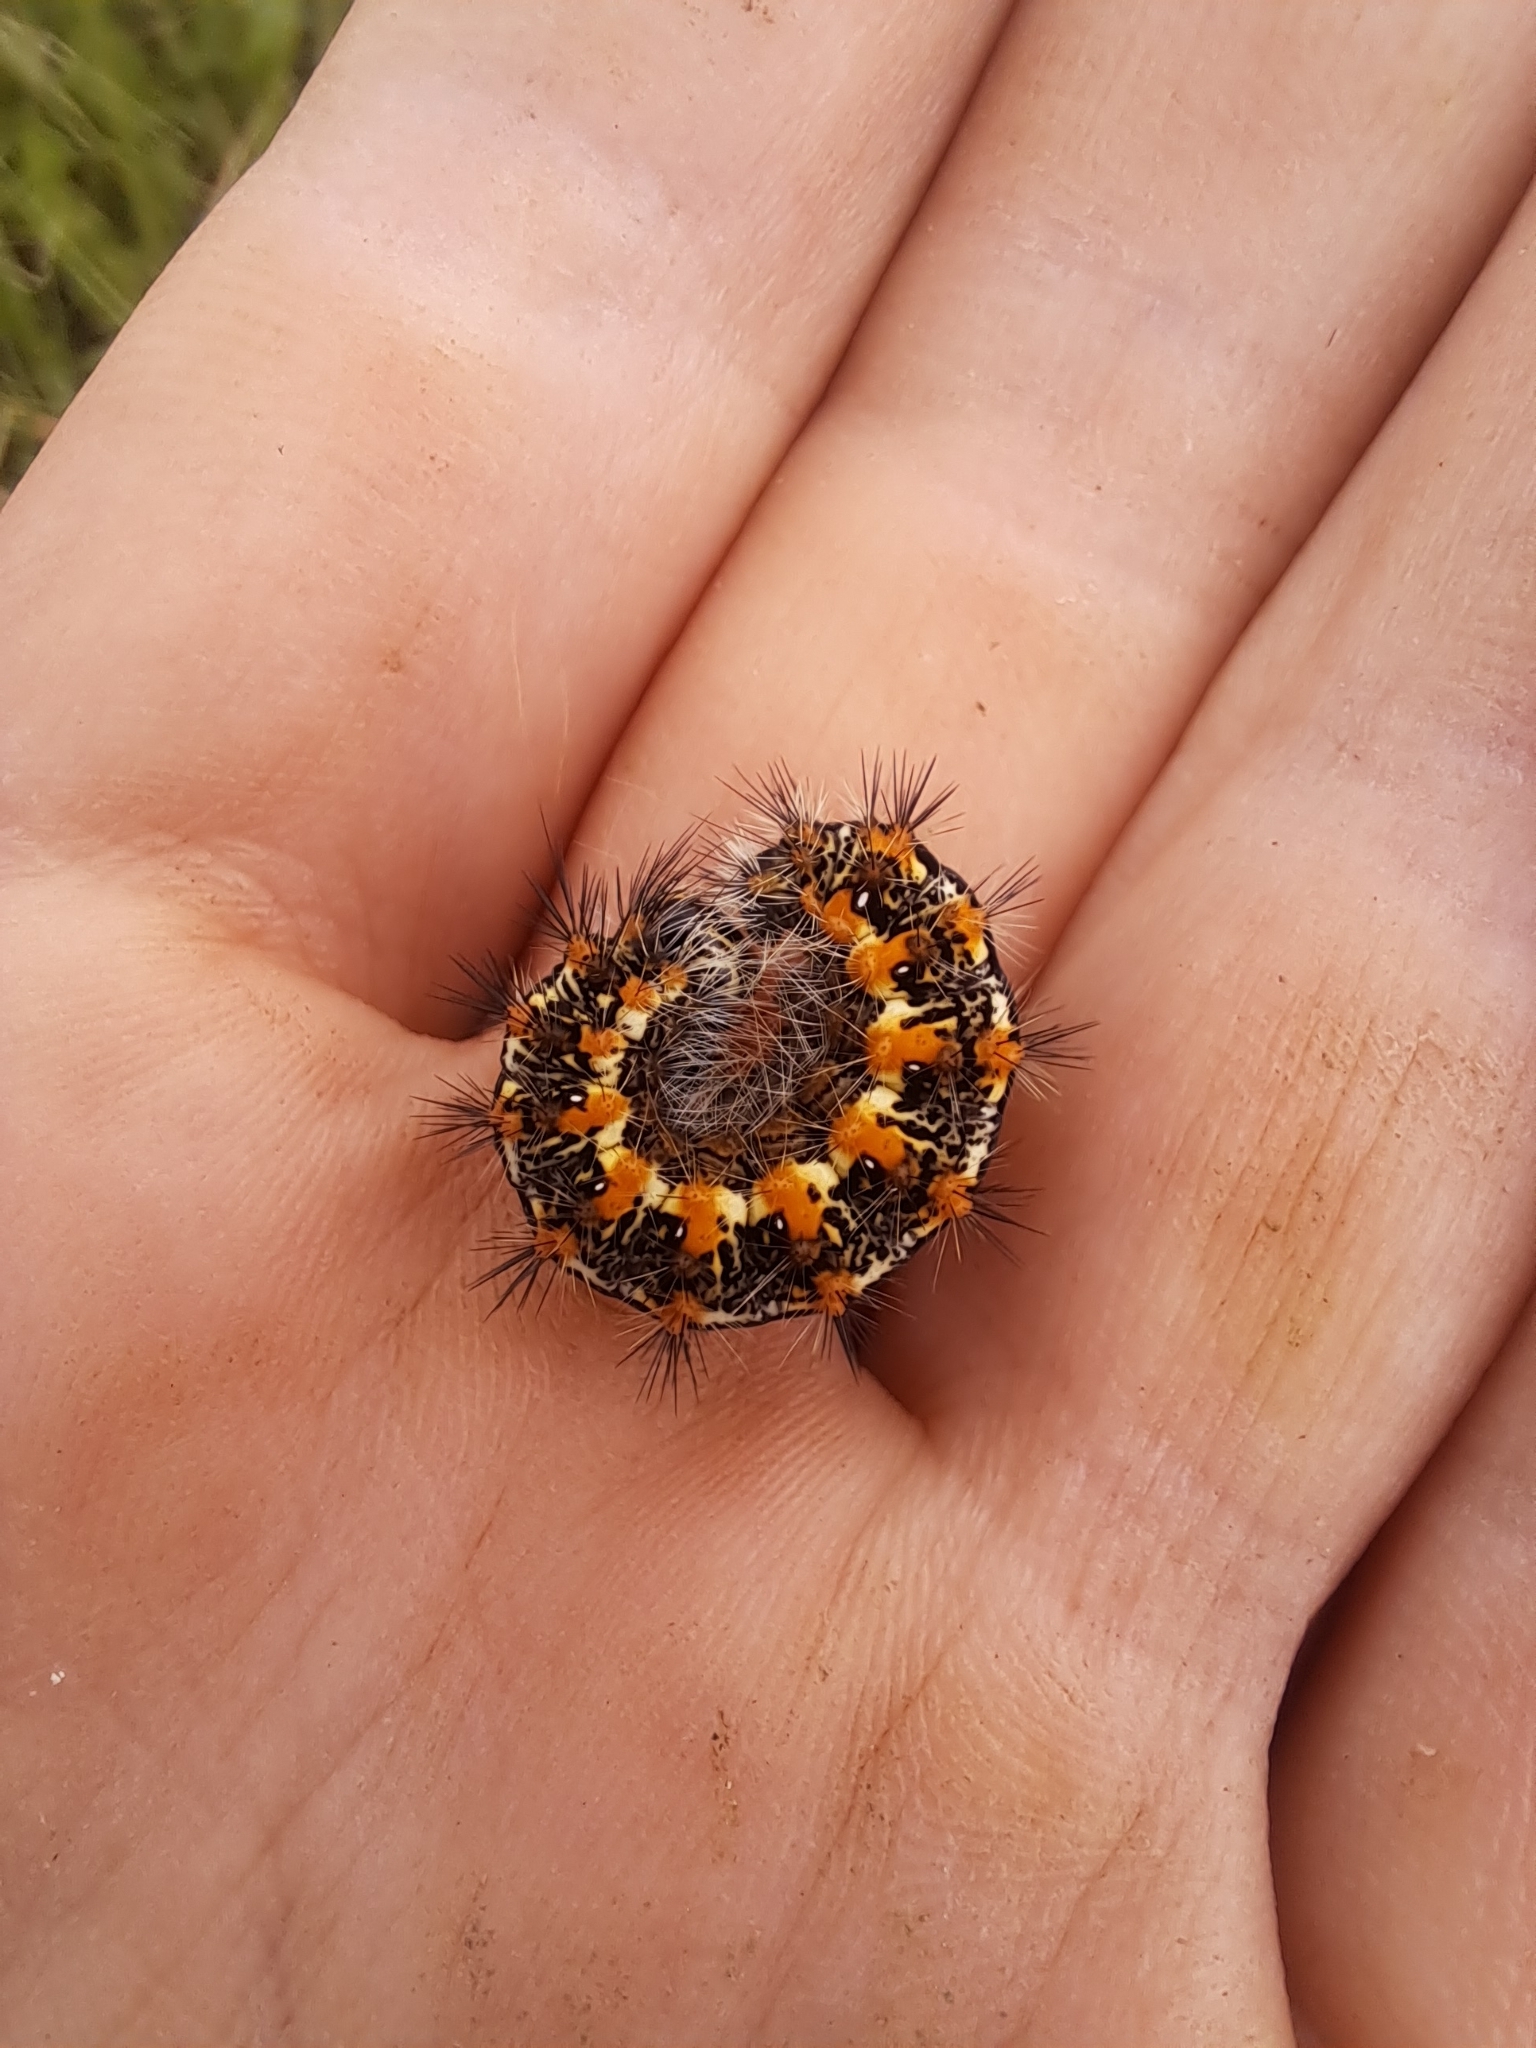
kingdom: Animalia
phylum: Arthropoda
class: Insecta
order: Lepidoptera
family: Noctuidae
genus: Acronicta
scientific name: Acronicta insularis
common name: Henry's marsh moth
